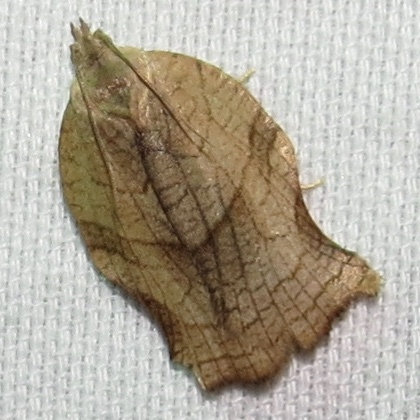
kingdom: Animalia
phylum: Arthropoda
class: Insecta
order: Lepidoptera
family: Tortricidae
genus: Archips
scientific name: Archips purpurana
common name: Omnivorous leafroller
